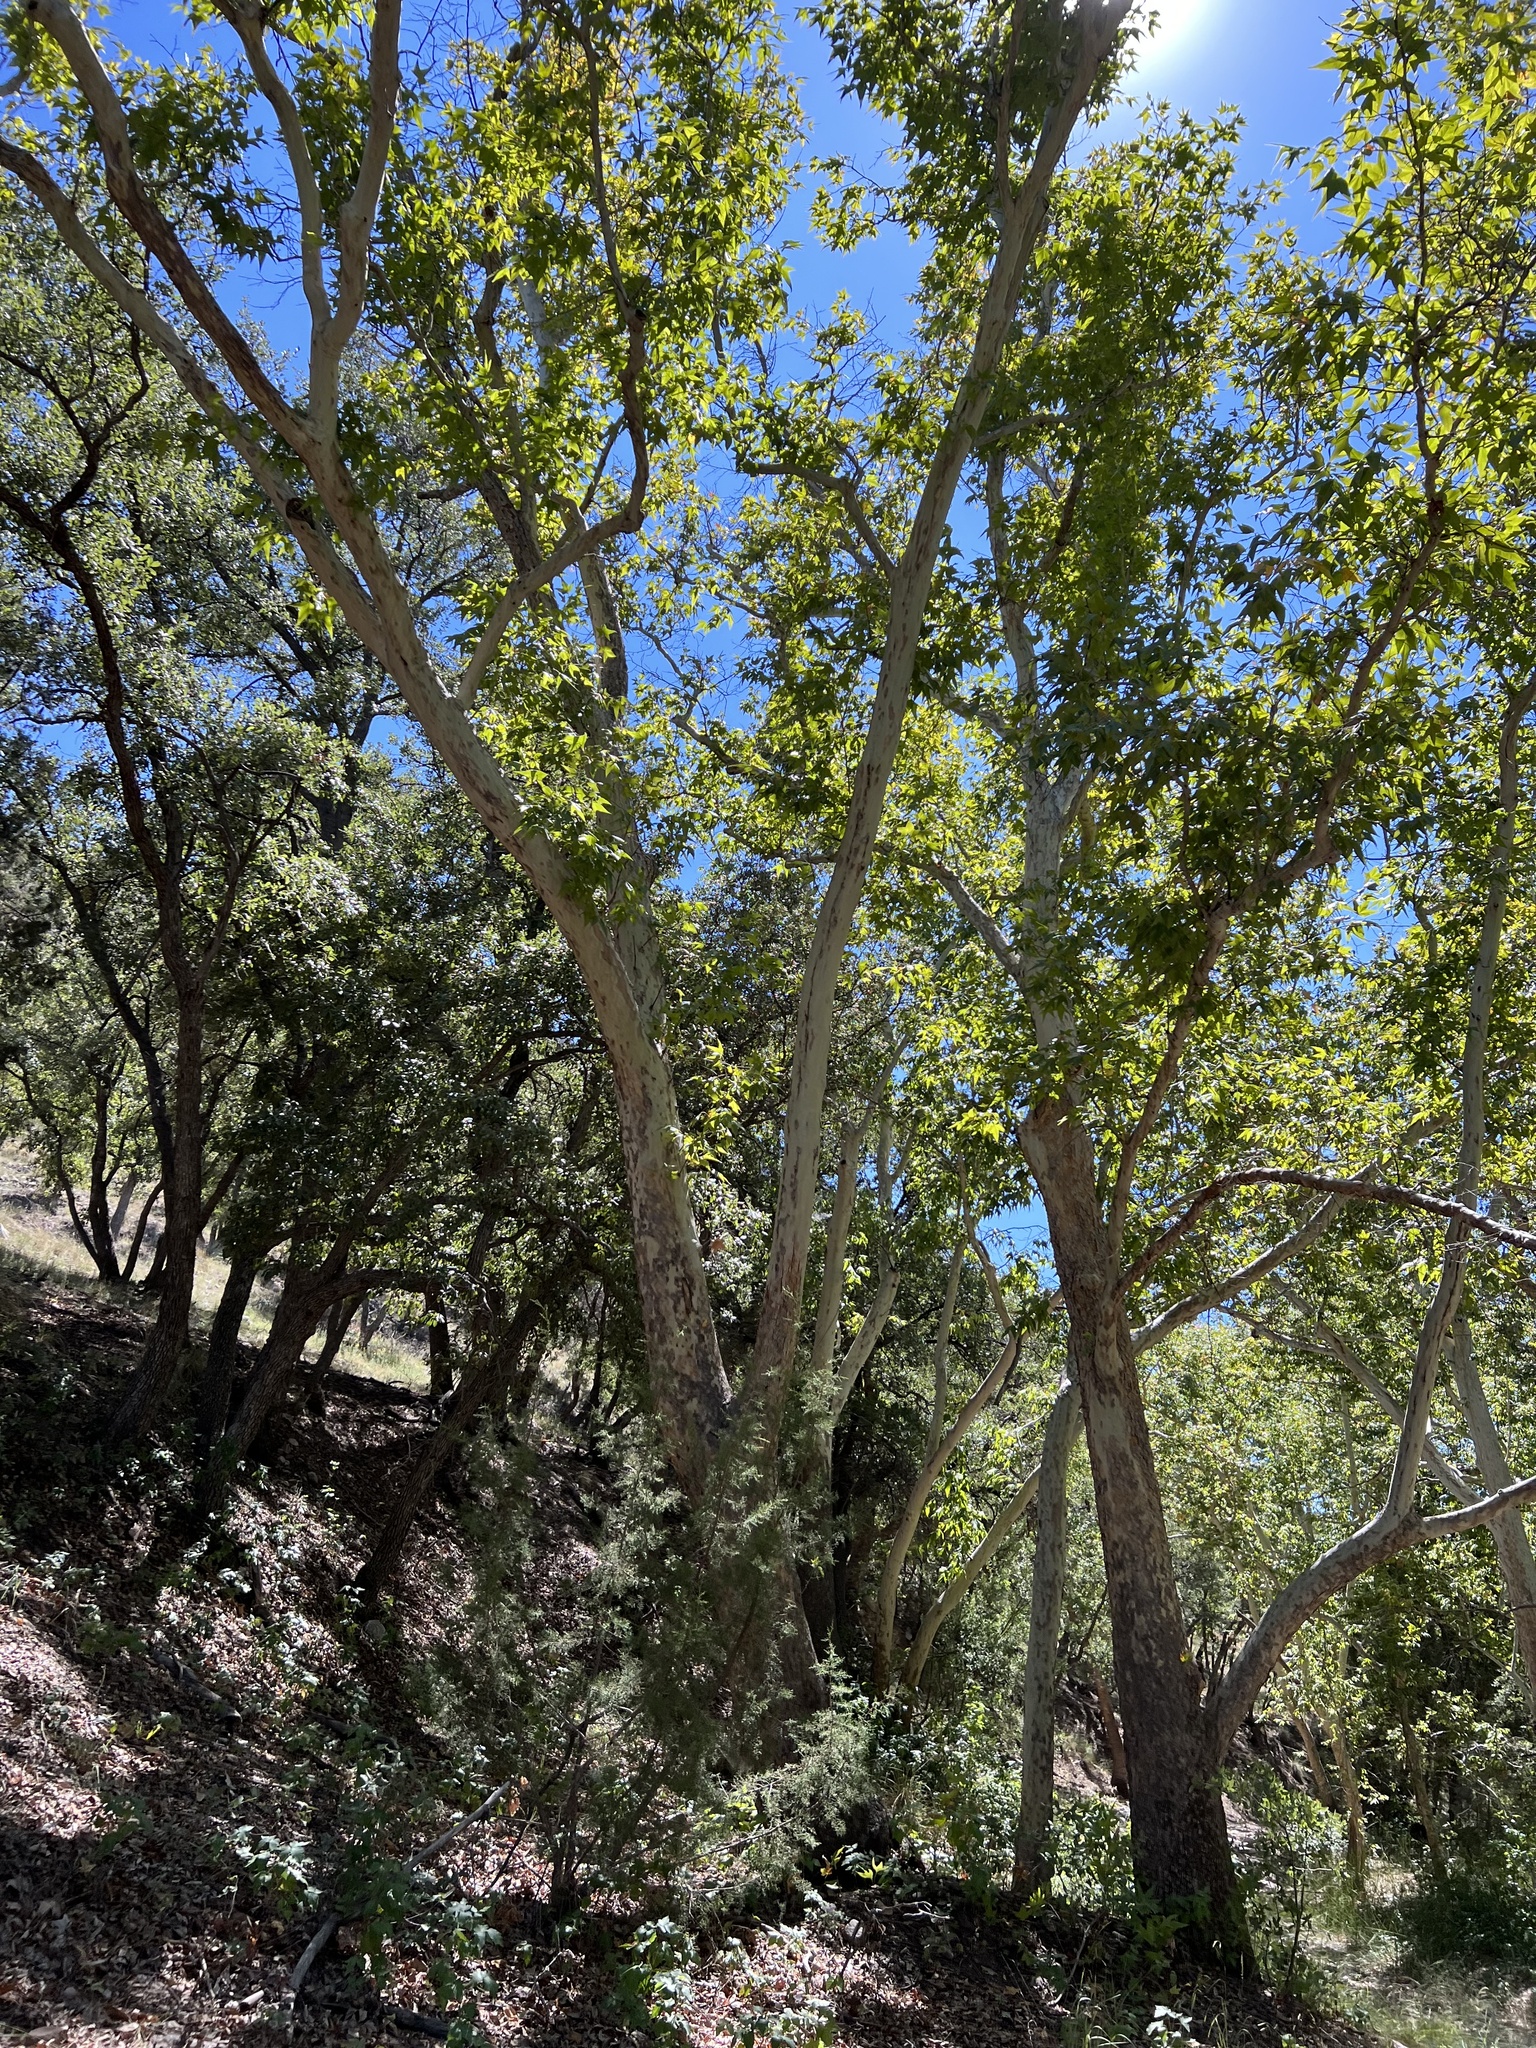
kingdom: Plantae
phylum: Tracheophyta
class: Magnoliopsida
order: Proteales
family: Platanaceae
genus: Platanus
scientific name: Platanus wrightii
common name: Arizona sycamore
